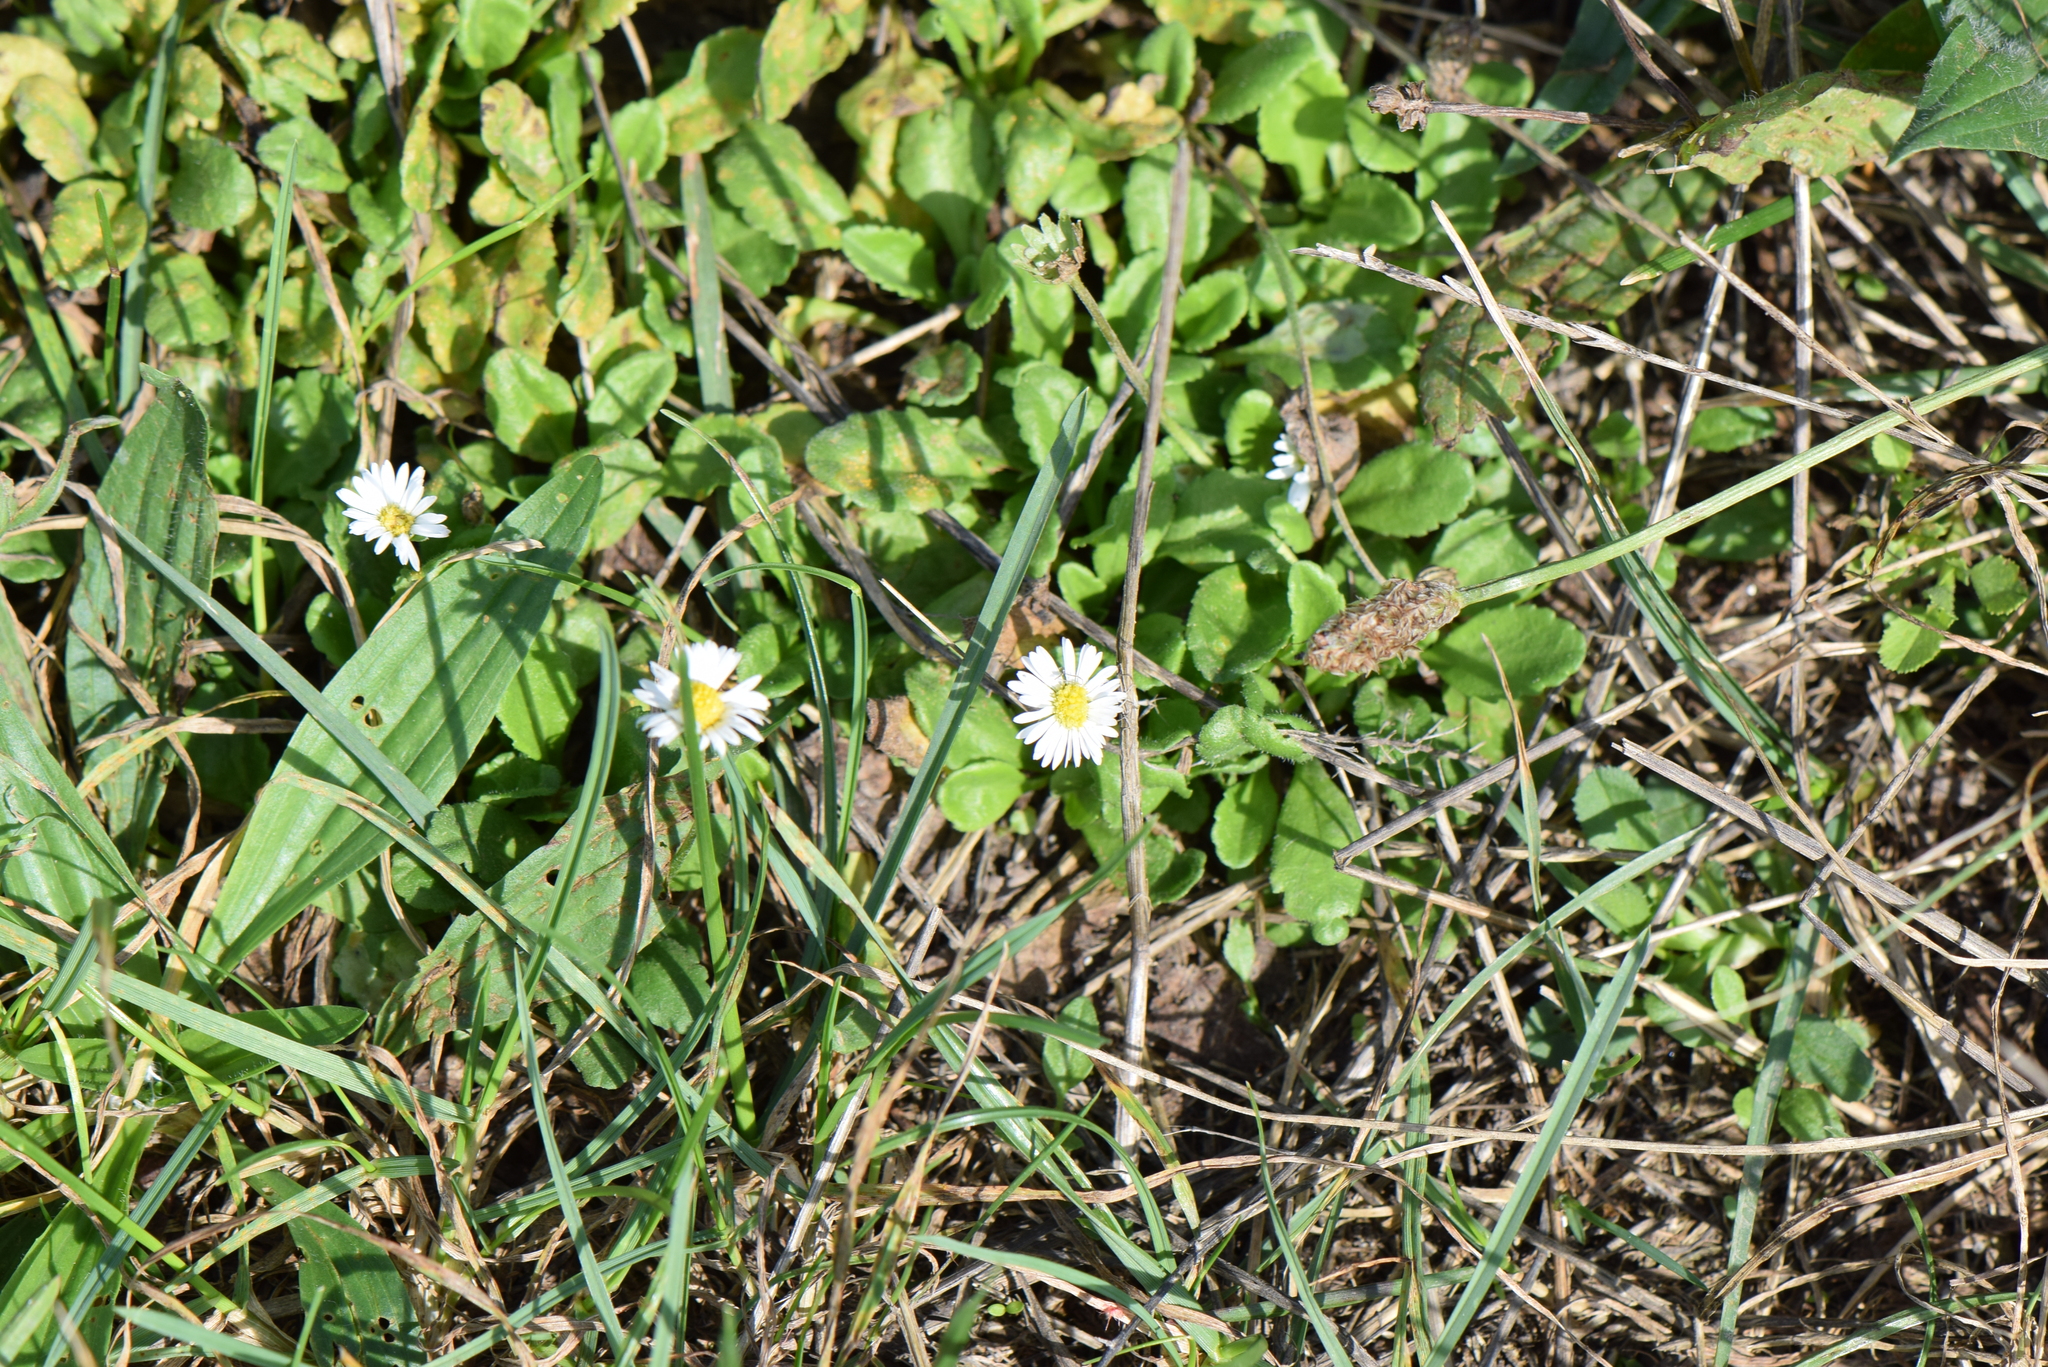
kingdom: Plantae
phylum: Tracheophyta
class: Magnoliopsida
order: Asterales
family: Asteraceae
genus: Bellis
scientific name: Bellis perennis
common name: Lawndaisy
